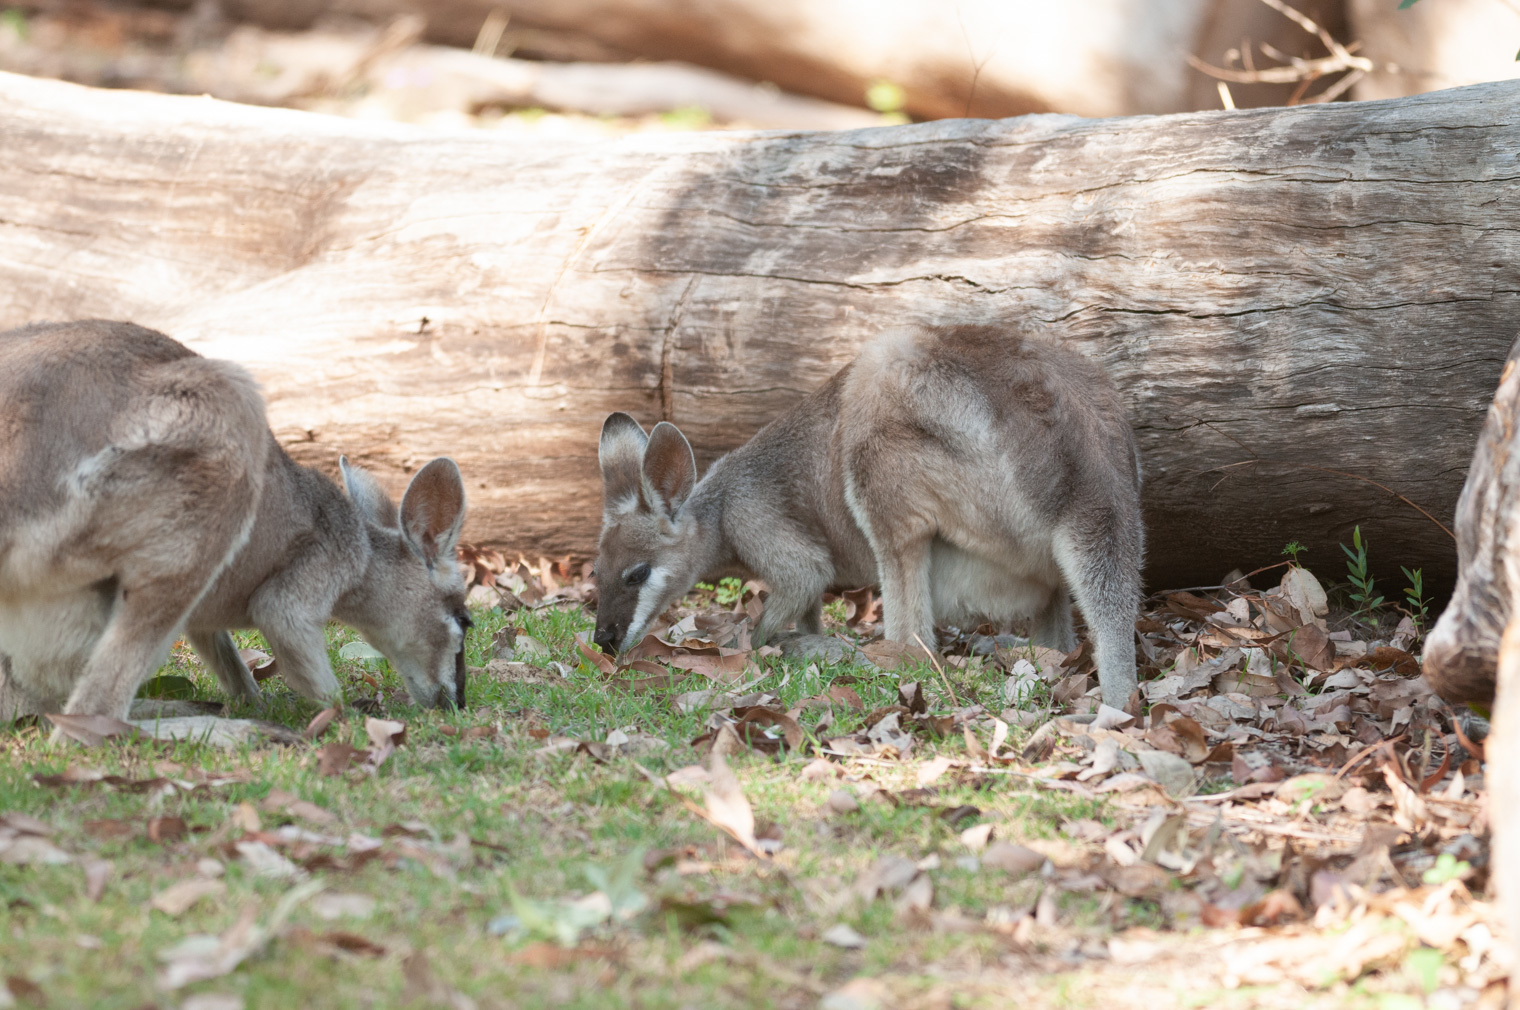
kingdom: Animalia
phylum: Chordata
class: Mammalia
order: Diprotodontia
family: Macropodidae
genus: Notamacropus
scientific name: Notamacropus parryi
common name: Whip-tailed wallaby
